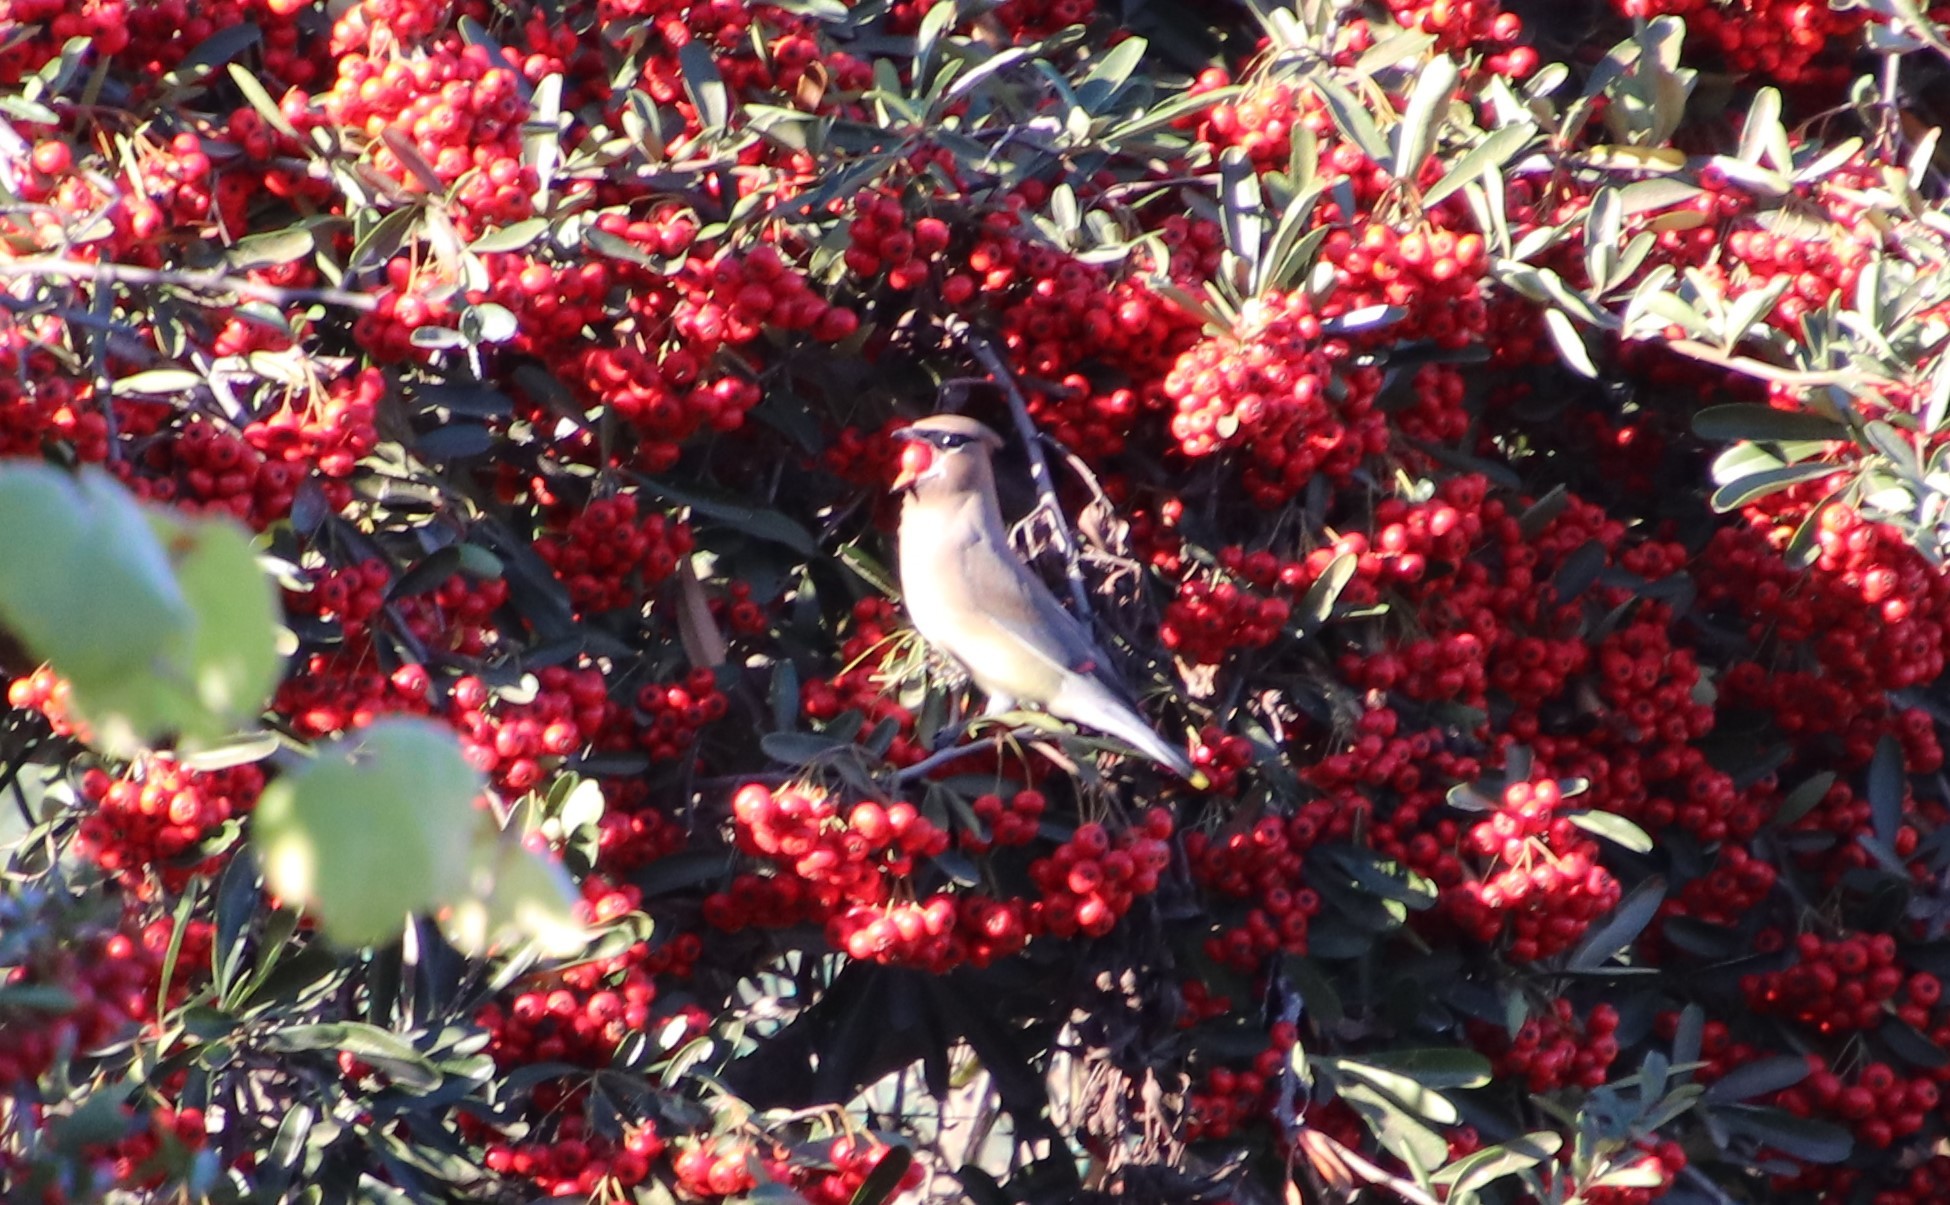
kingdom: Animalia
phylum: Chordata
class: Aves
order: Passeriformes
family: Bombycillidae
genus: Bombycilla
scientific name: Bombycilla cedrorum
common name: Cedar waxwing
